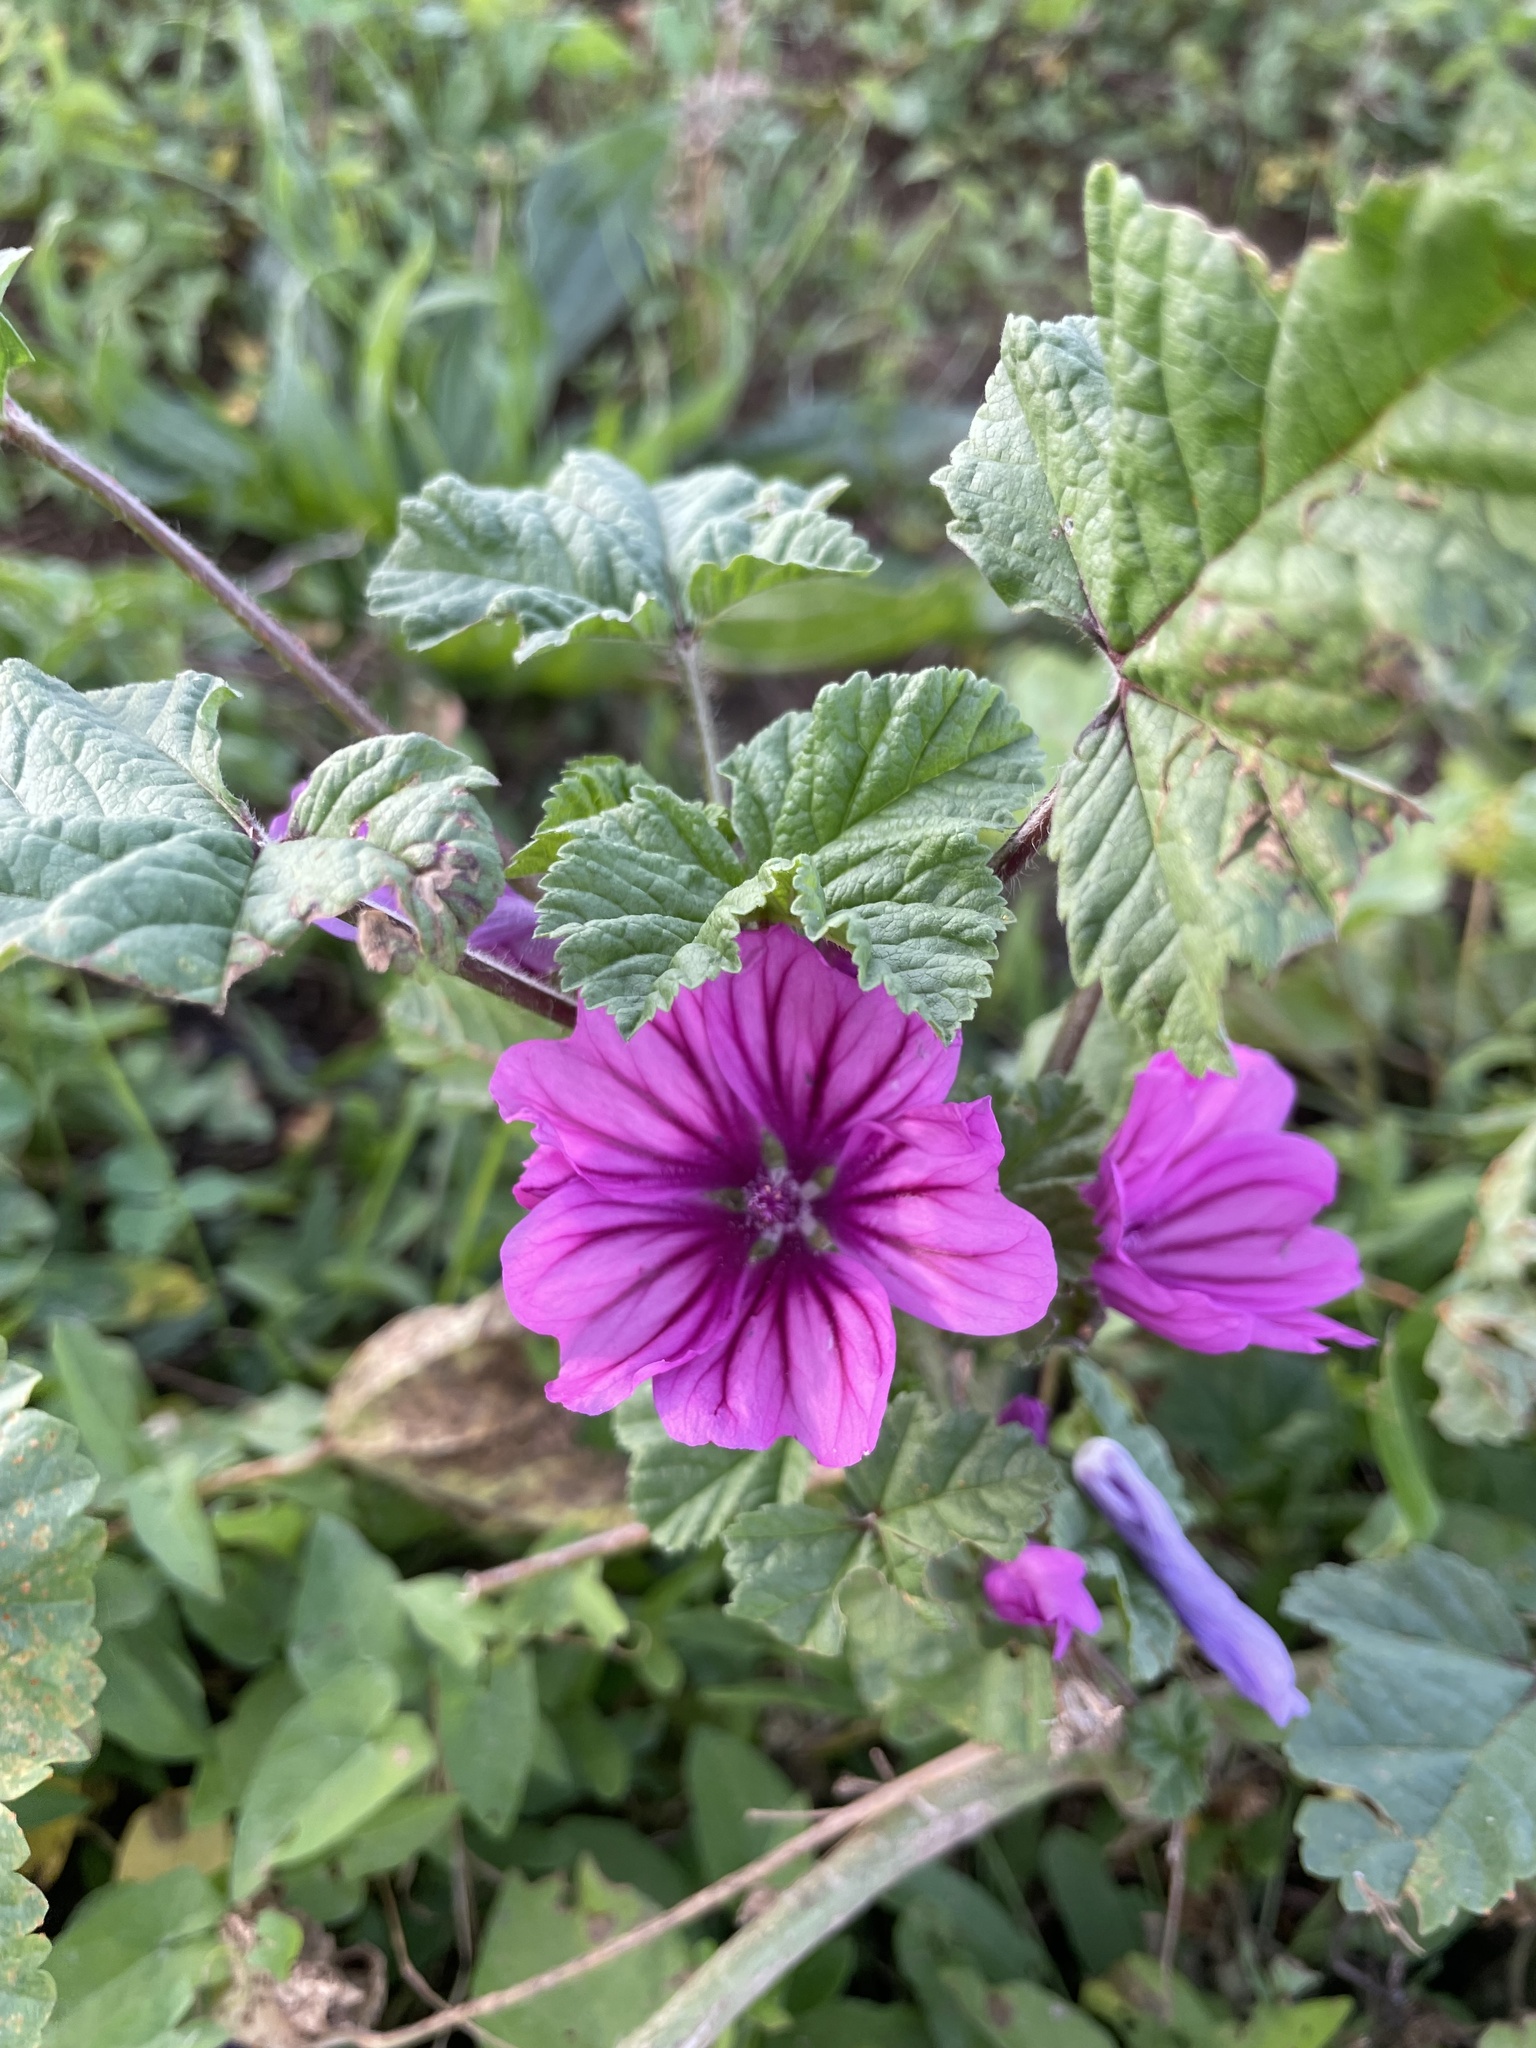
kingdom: Plantae
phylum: Tracheophyta
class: Magnoliopsida
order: Malvales
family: Malvaceae
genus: Malva
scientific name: Malva sylvestris
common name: Common mallow
